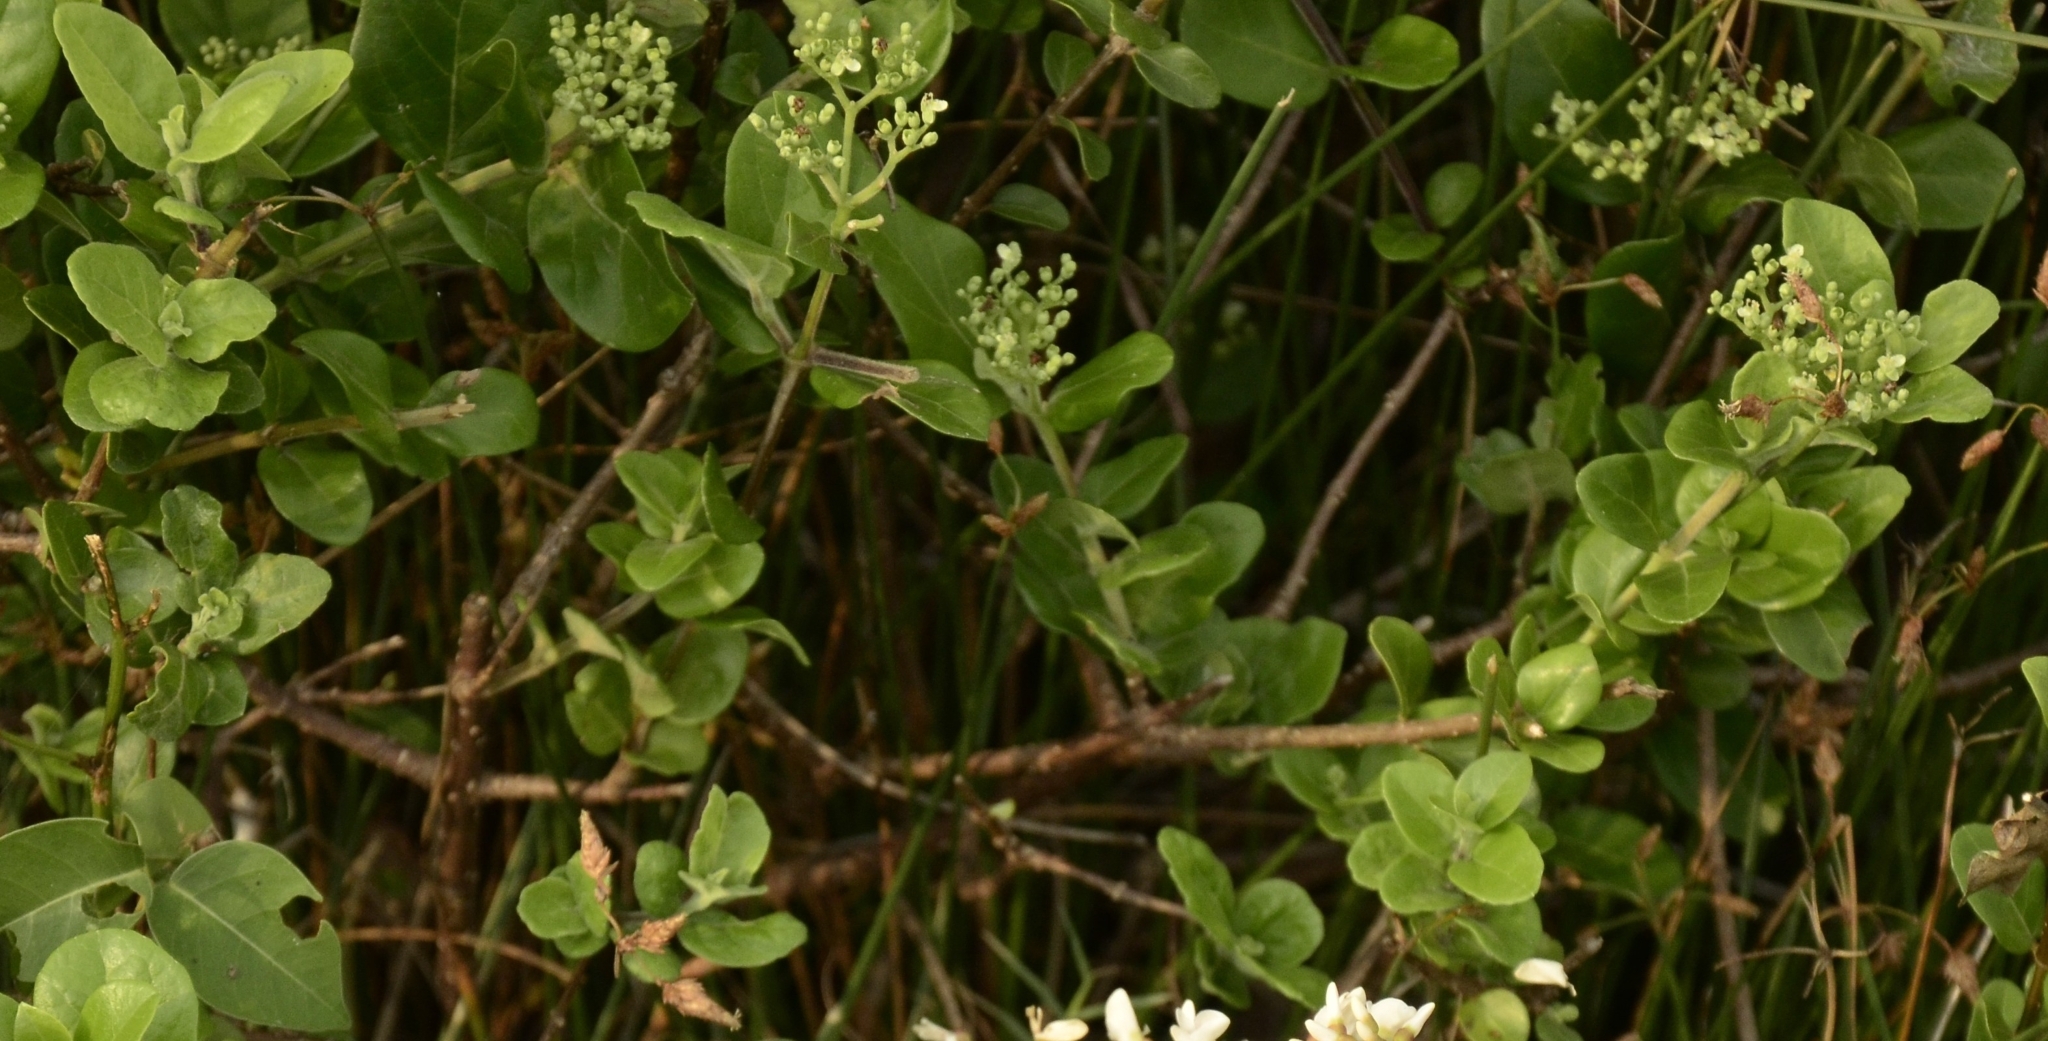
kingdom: Plantae
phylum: Tracheophyta
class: Magnoliopsida
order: Lamiales
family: Lamiaceae
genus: Premna
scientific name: Premna serratifolia
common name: Bastard guelder
